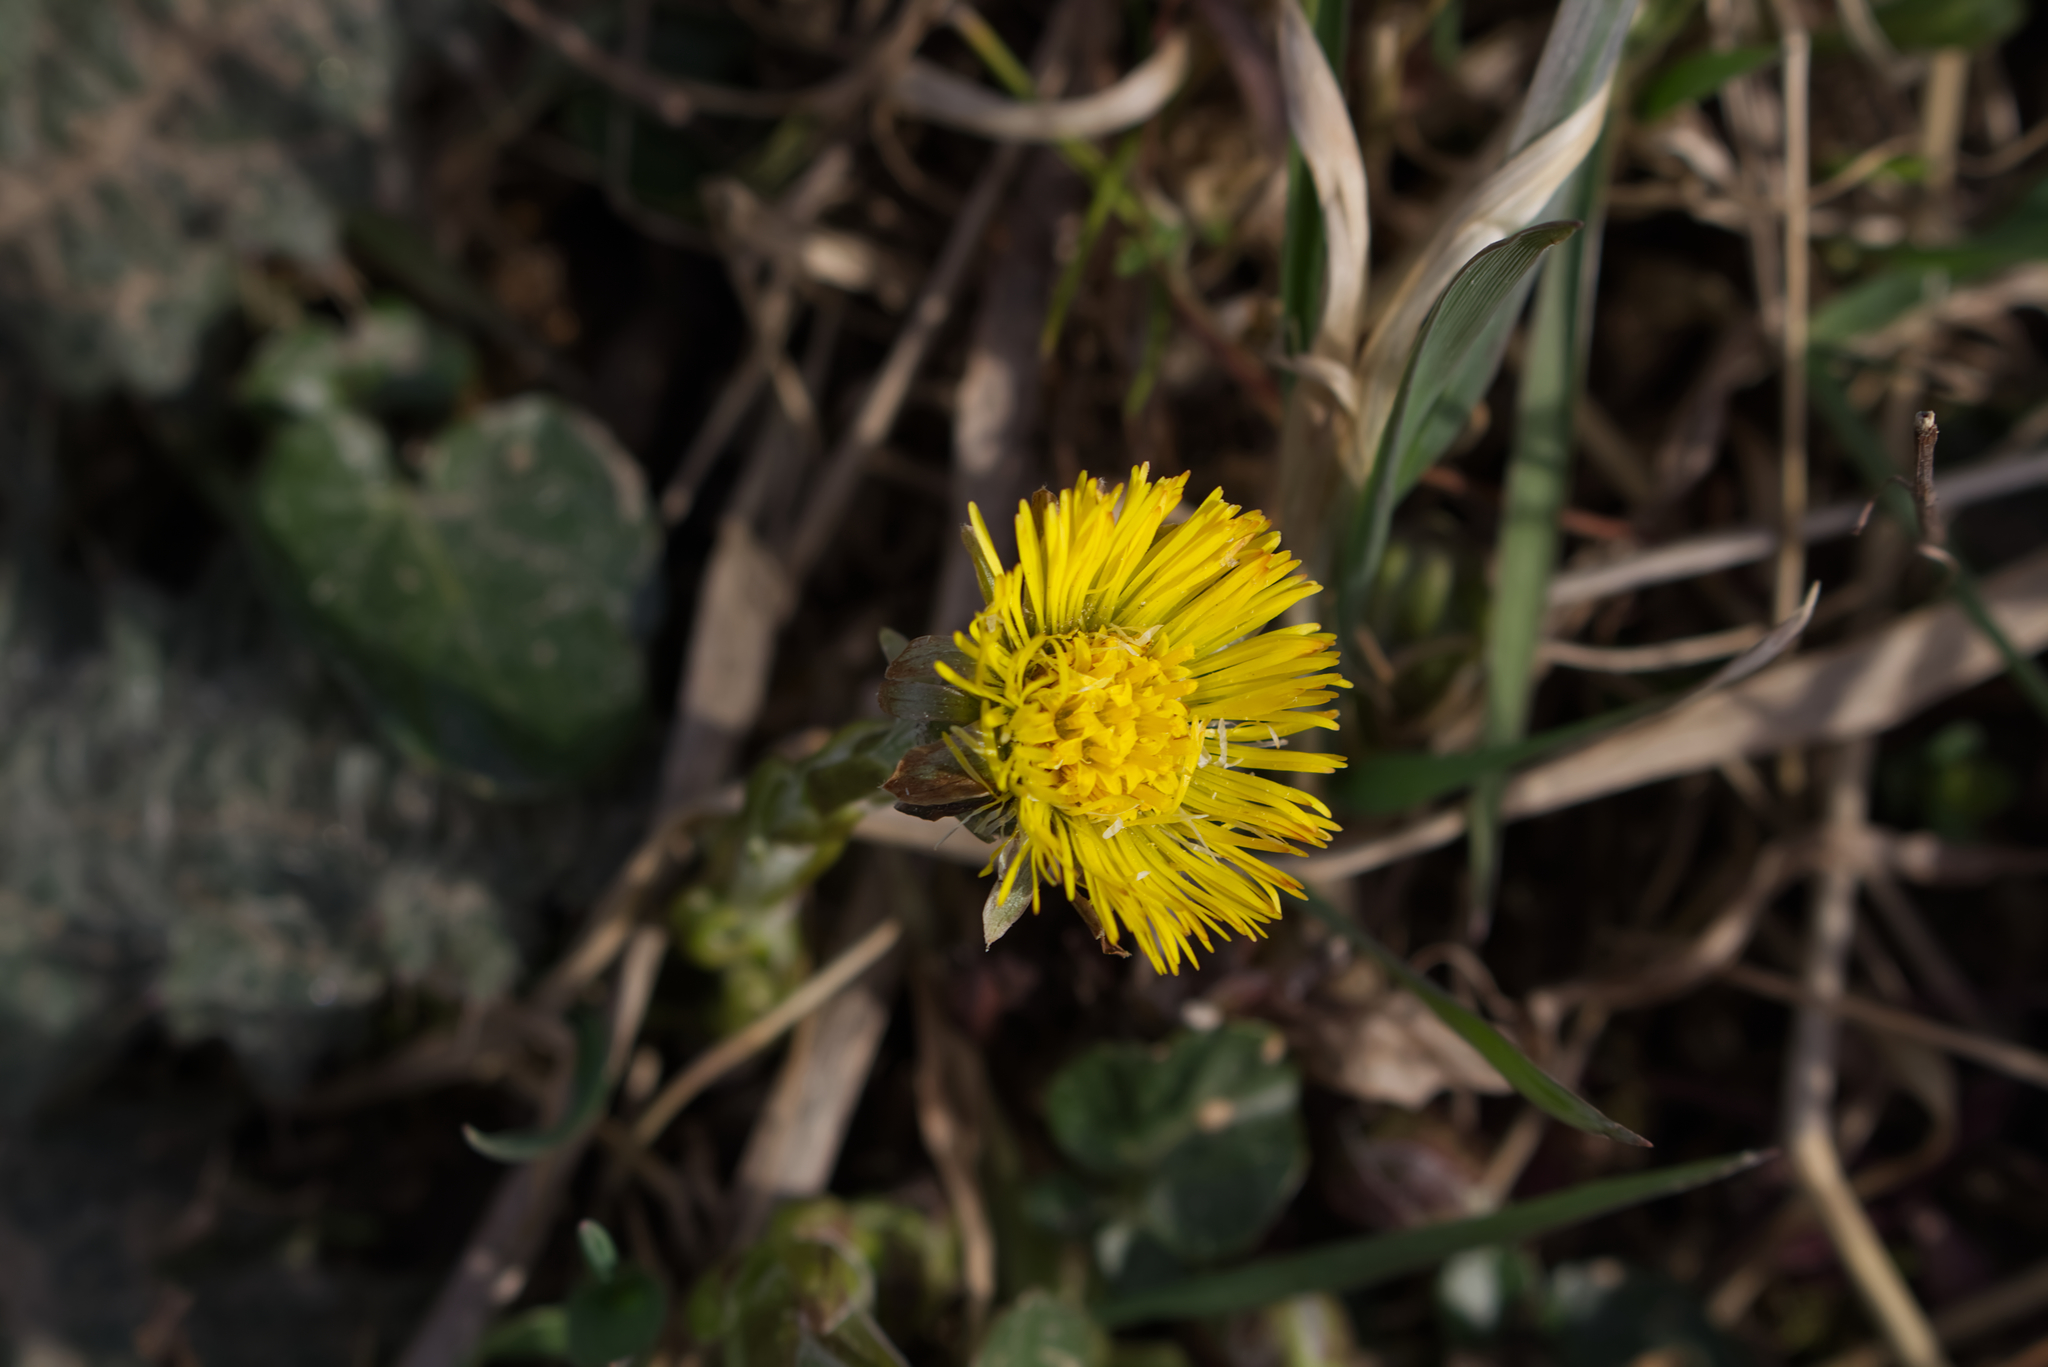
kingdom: Plantae
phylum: Tracheophyta
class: Magnoliopsida
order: Asterales
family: Asteraceae
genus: Tussilago
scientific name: Tussilago farfara
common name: Coltsfoot
